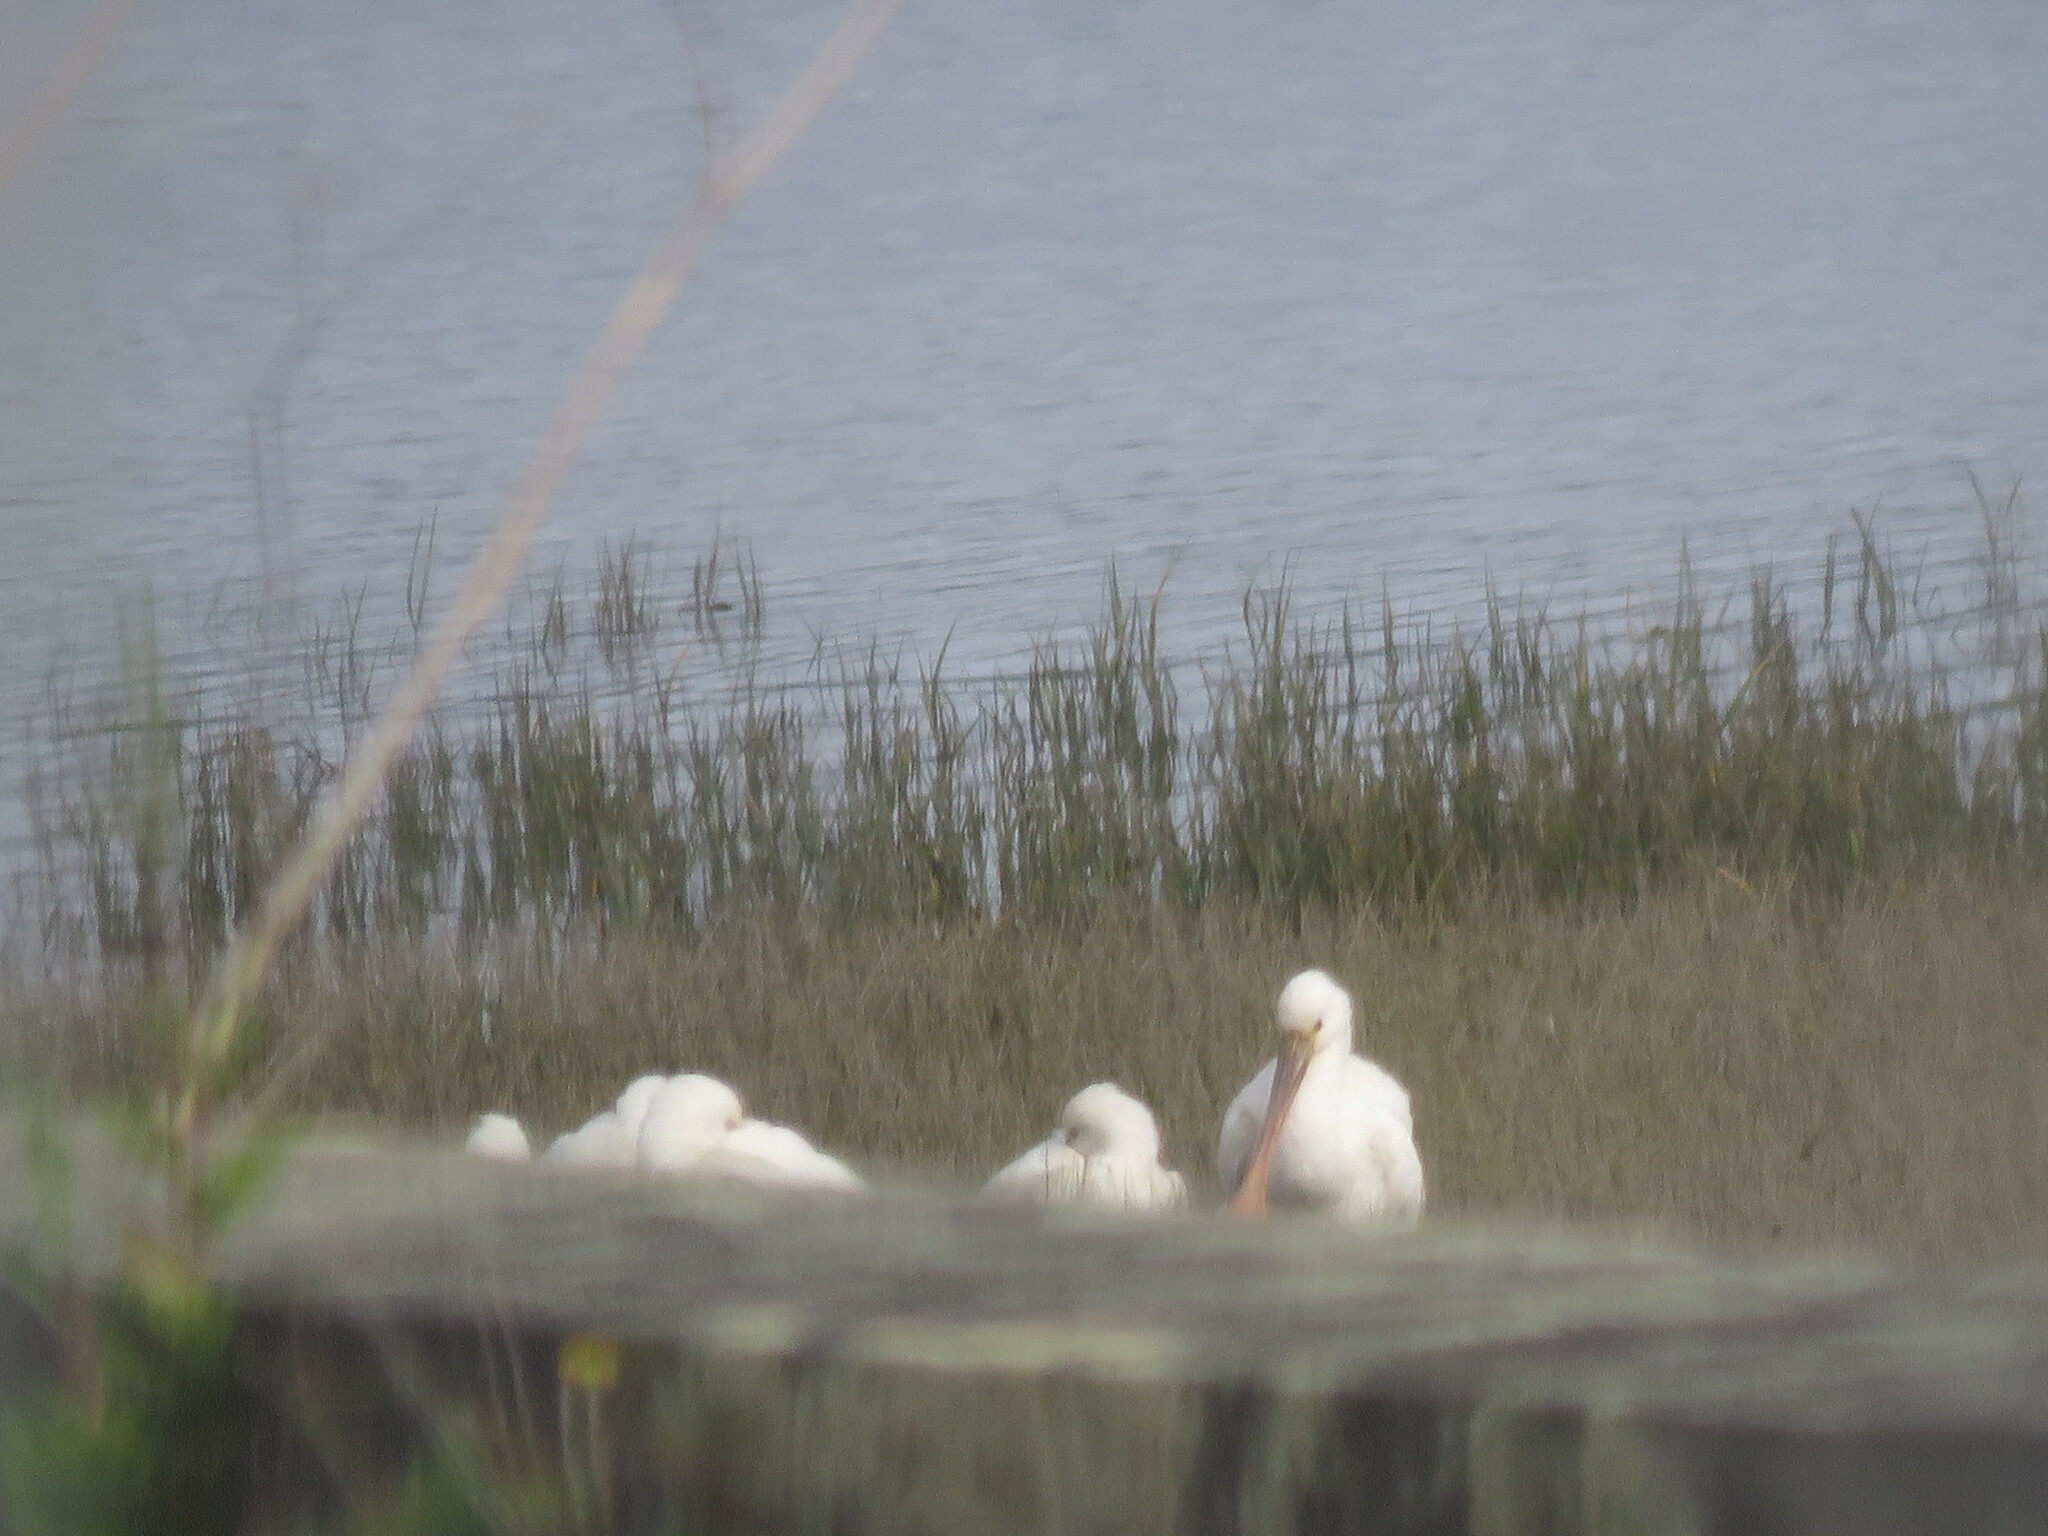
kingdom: Animalia
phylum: Chordata
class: Aves
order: Pelecaniformes
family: Threskiornithidae
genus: Platalea
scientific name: Platalea leucorodia
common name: Eurasian spoonbill
